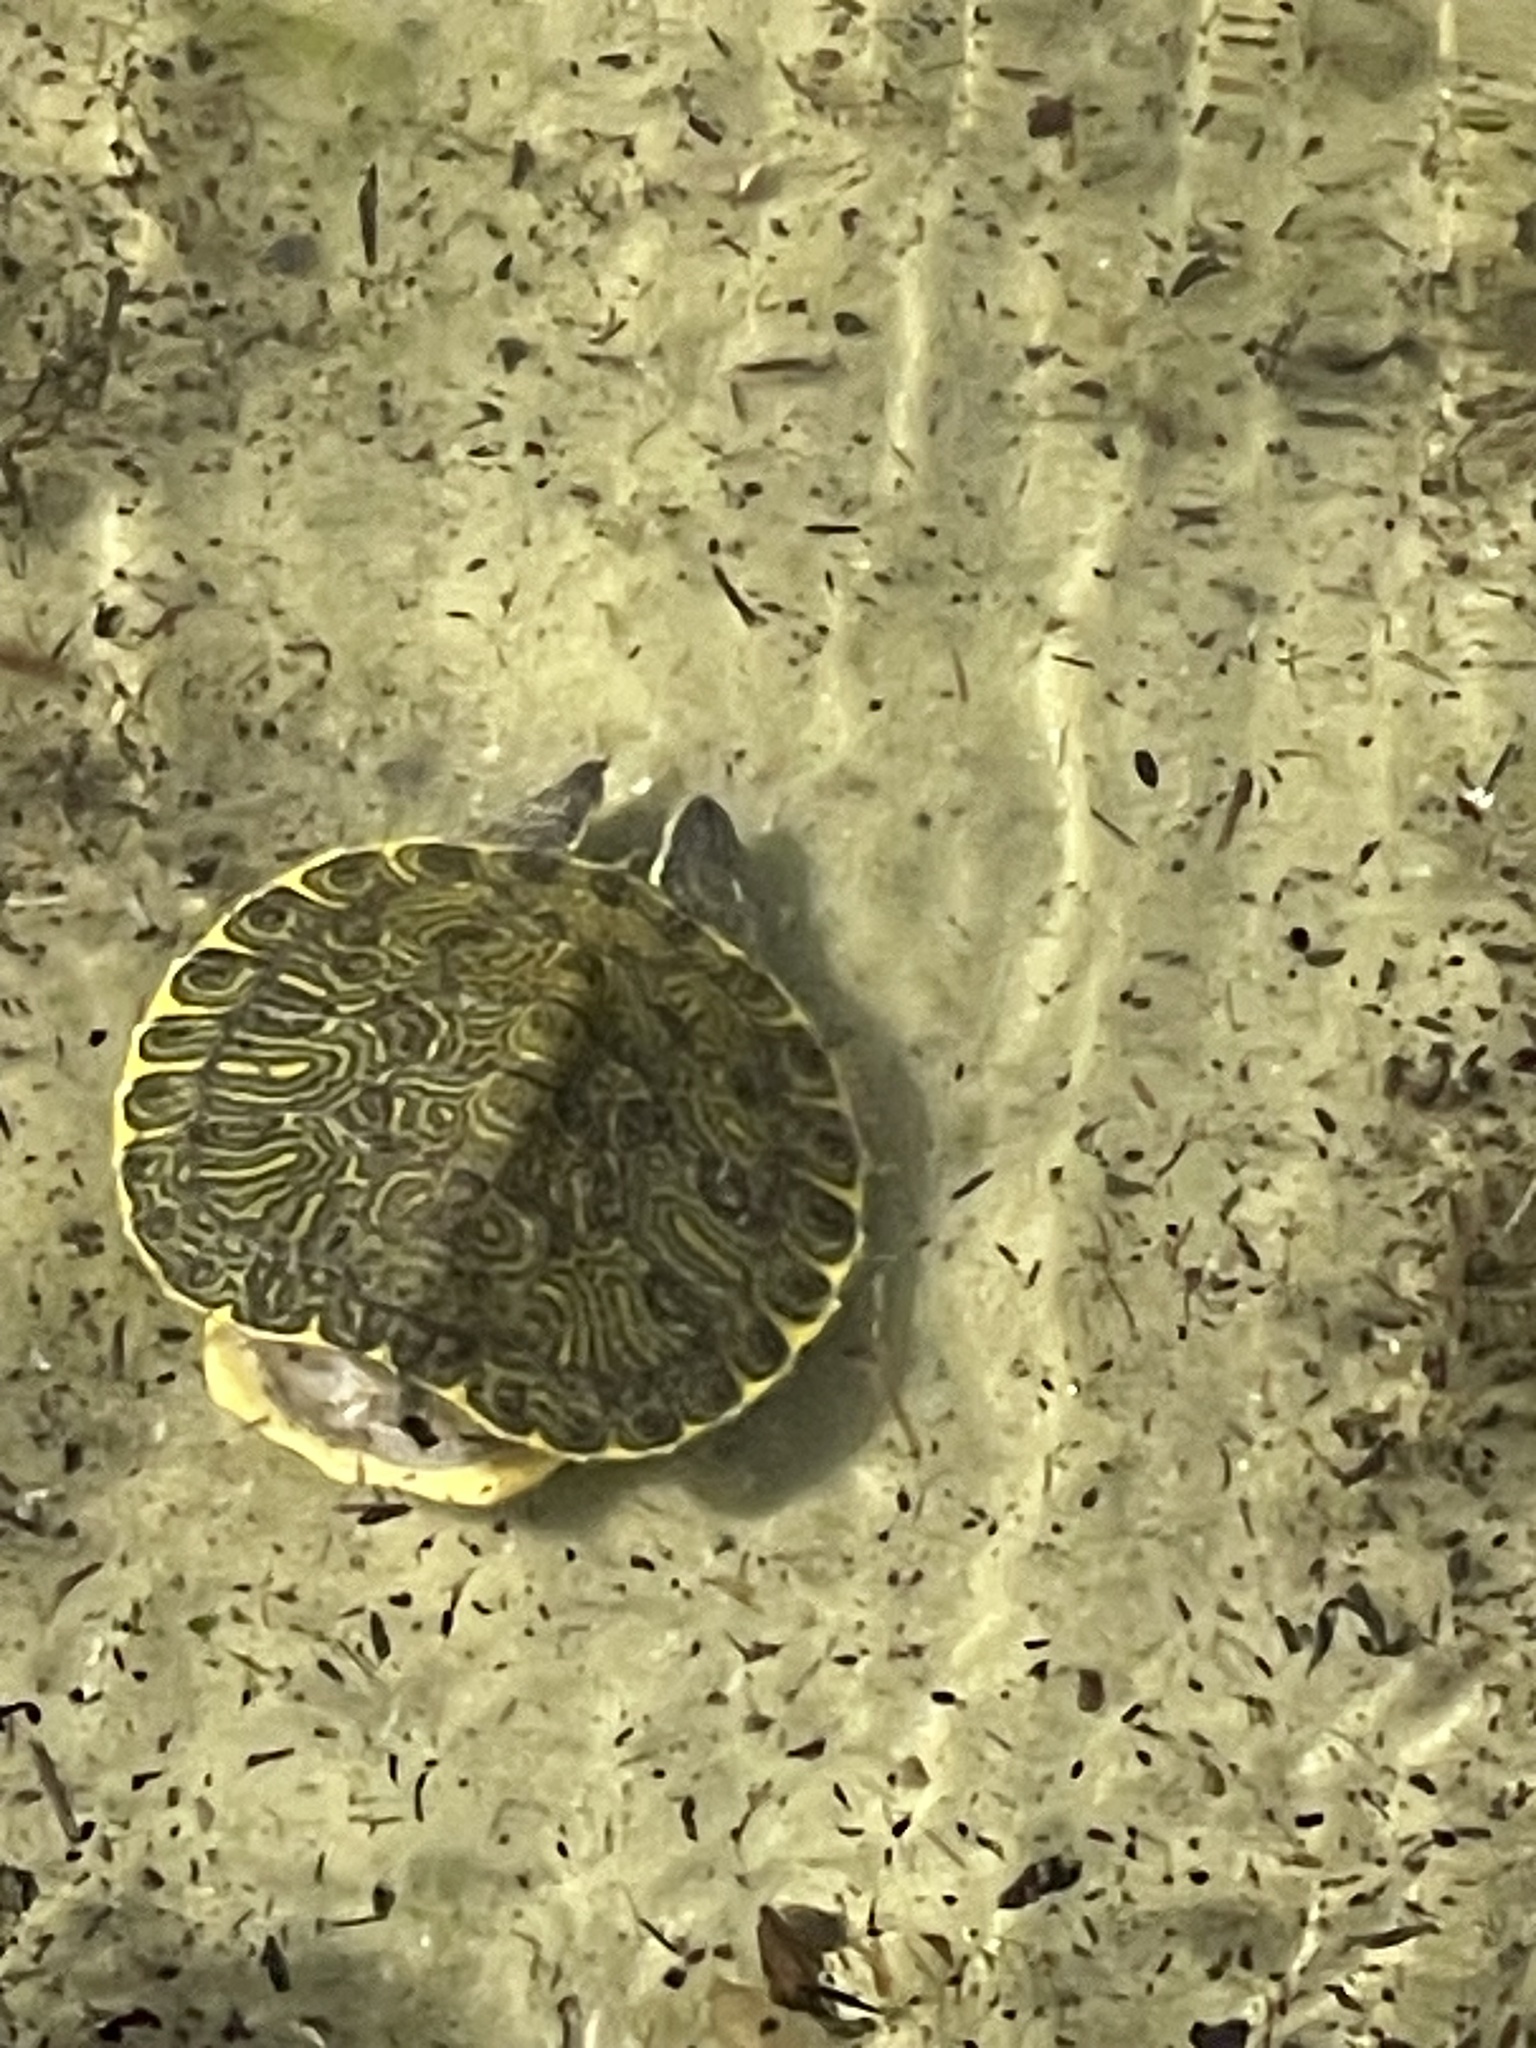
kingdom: Animalia
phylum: Chordata
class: Testudines
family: Emydidae
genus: Trachemys
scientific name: Trachemys scripta
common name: Slider
